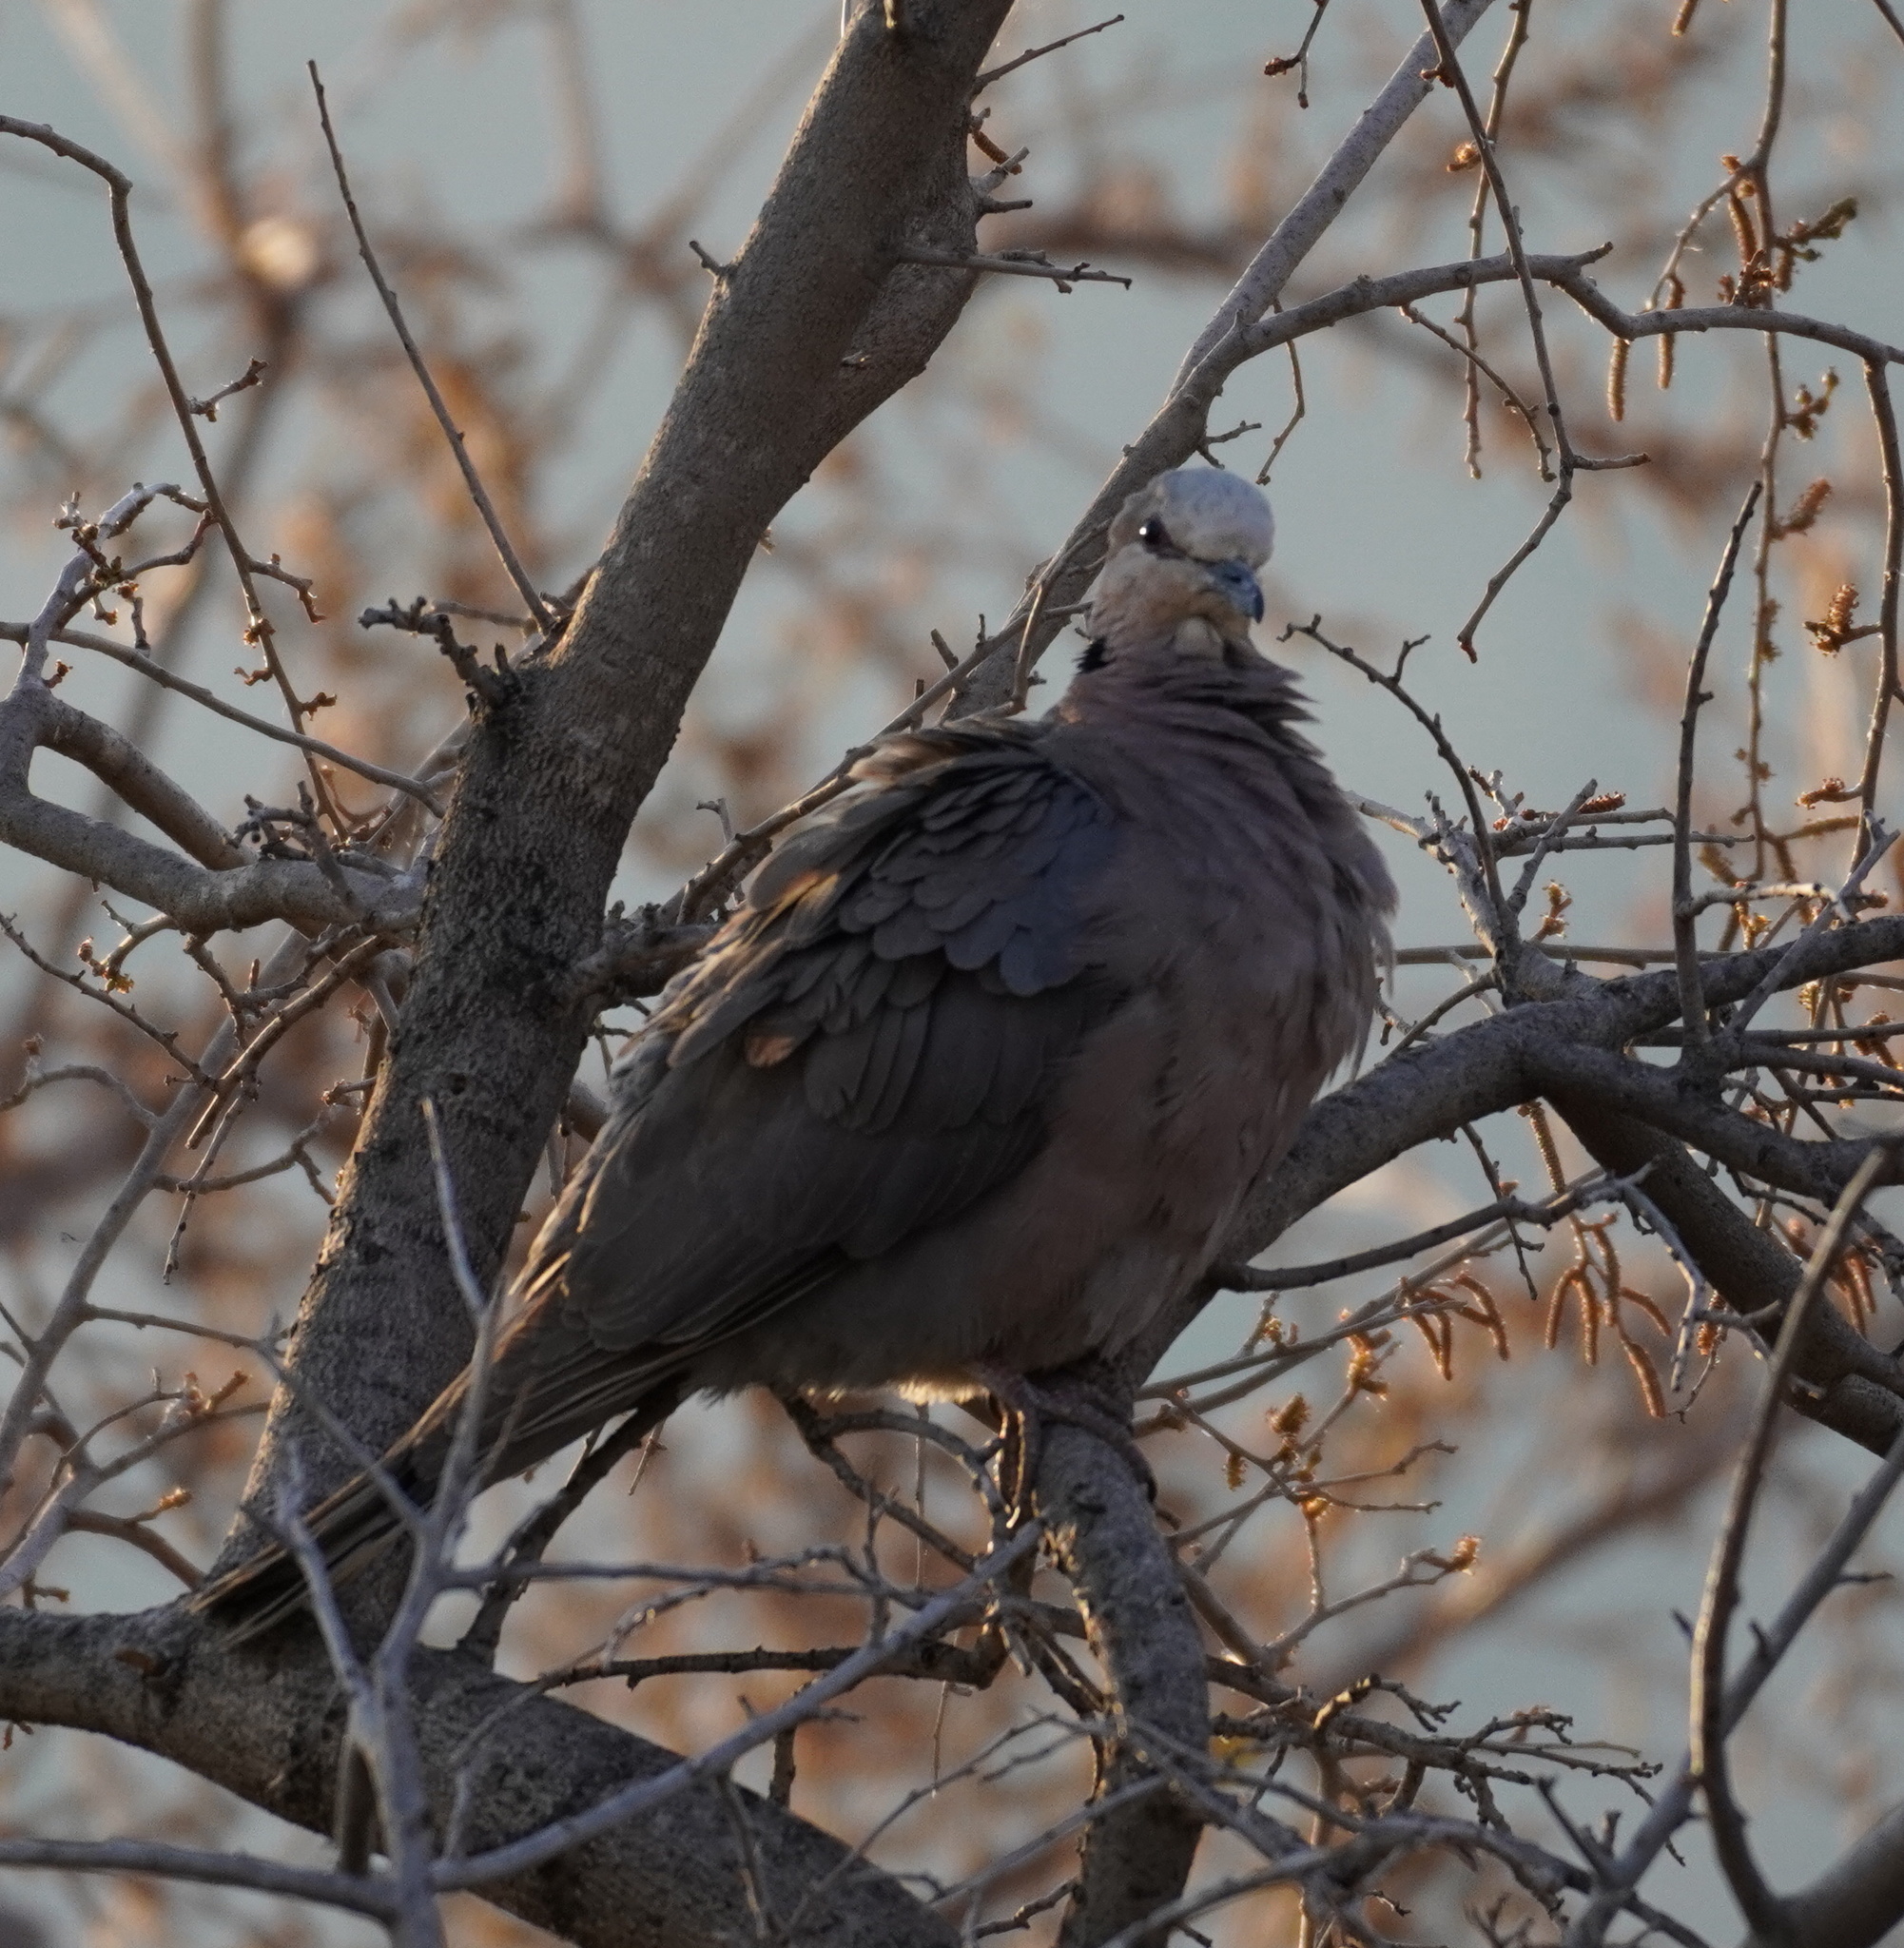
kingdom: Animalia
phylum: Chordata
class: Aves
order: Columbiformes
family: Columbidae
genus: Streptopelia
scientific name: Streptopelia semitorquata
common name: Red-eyed dove
